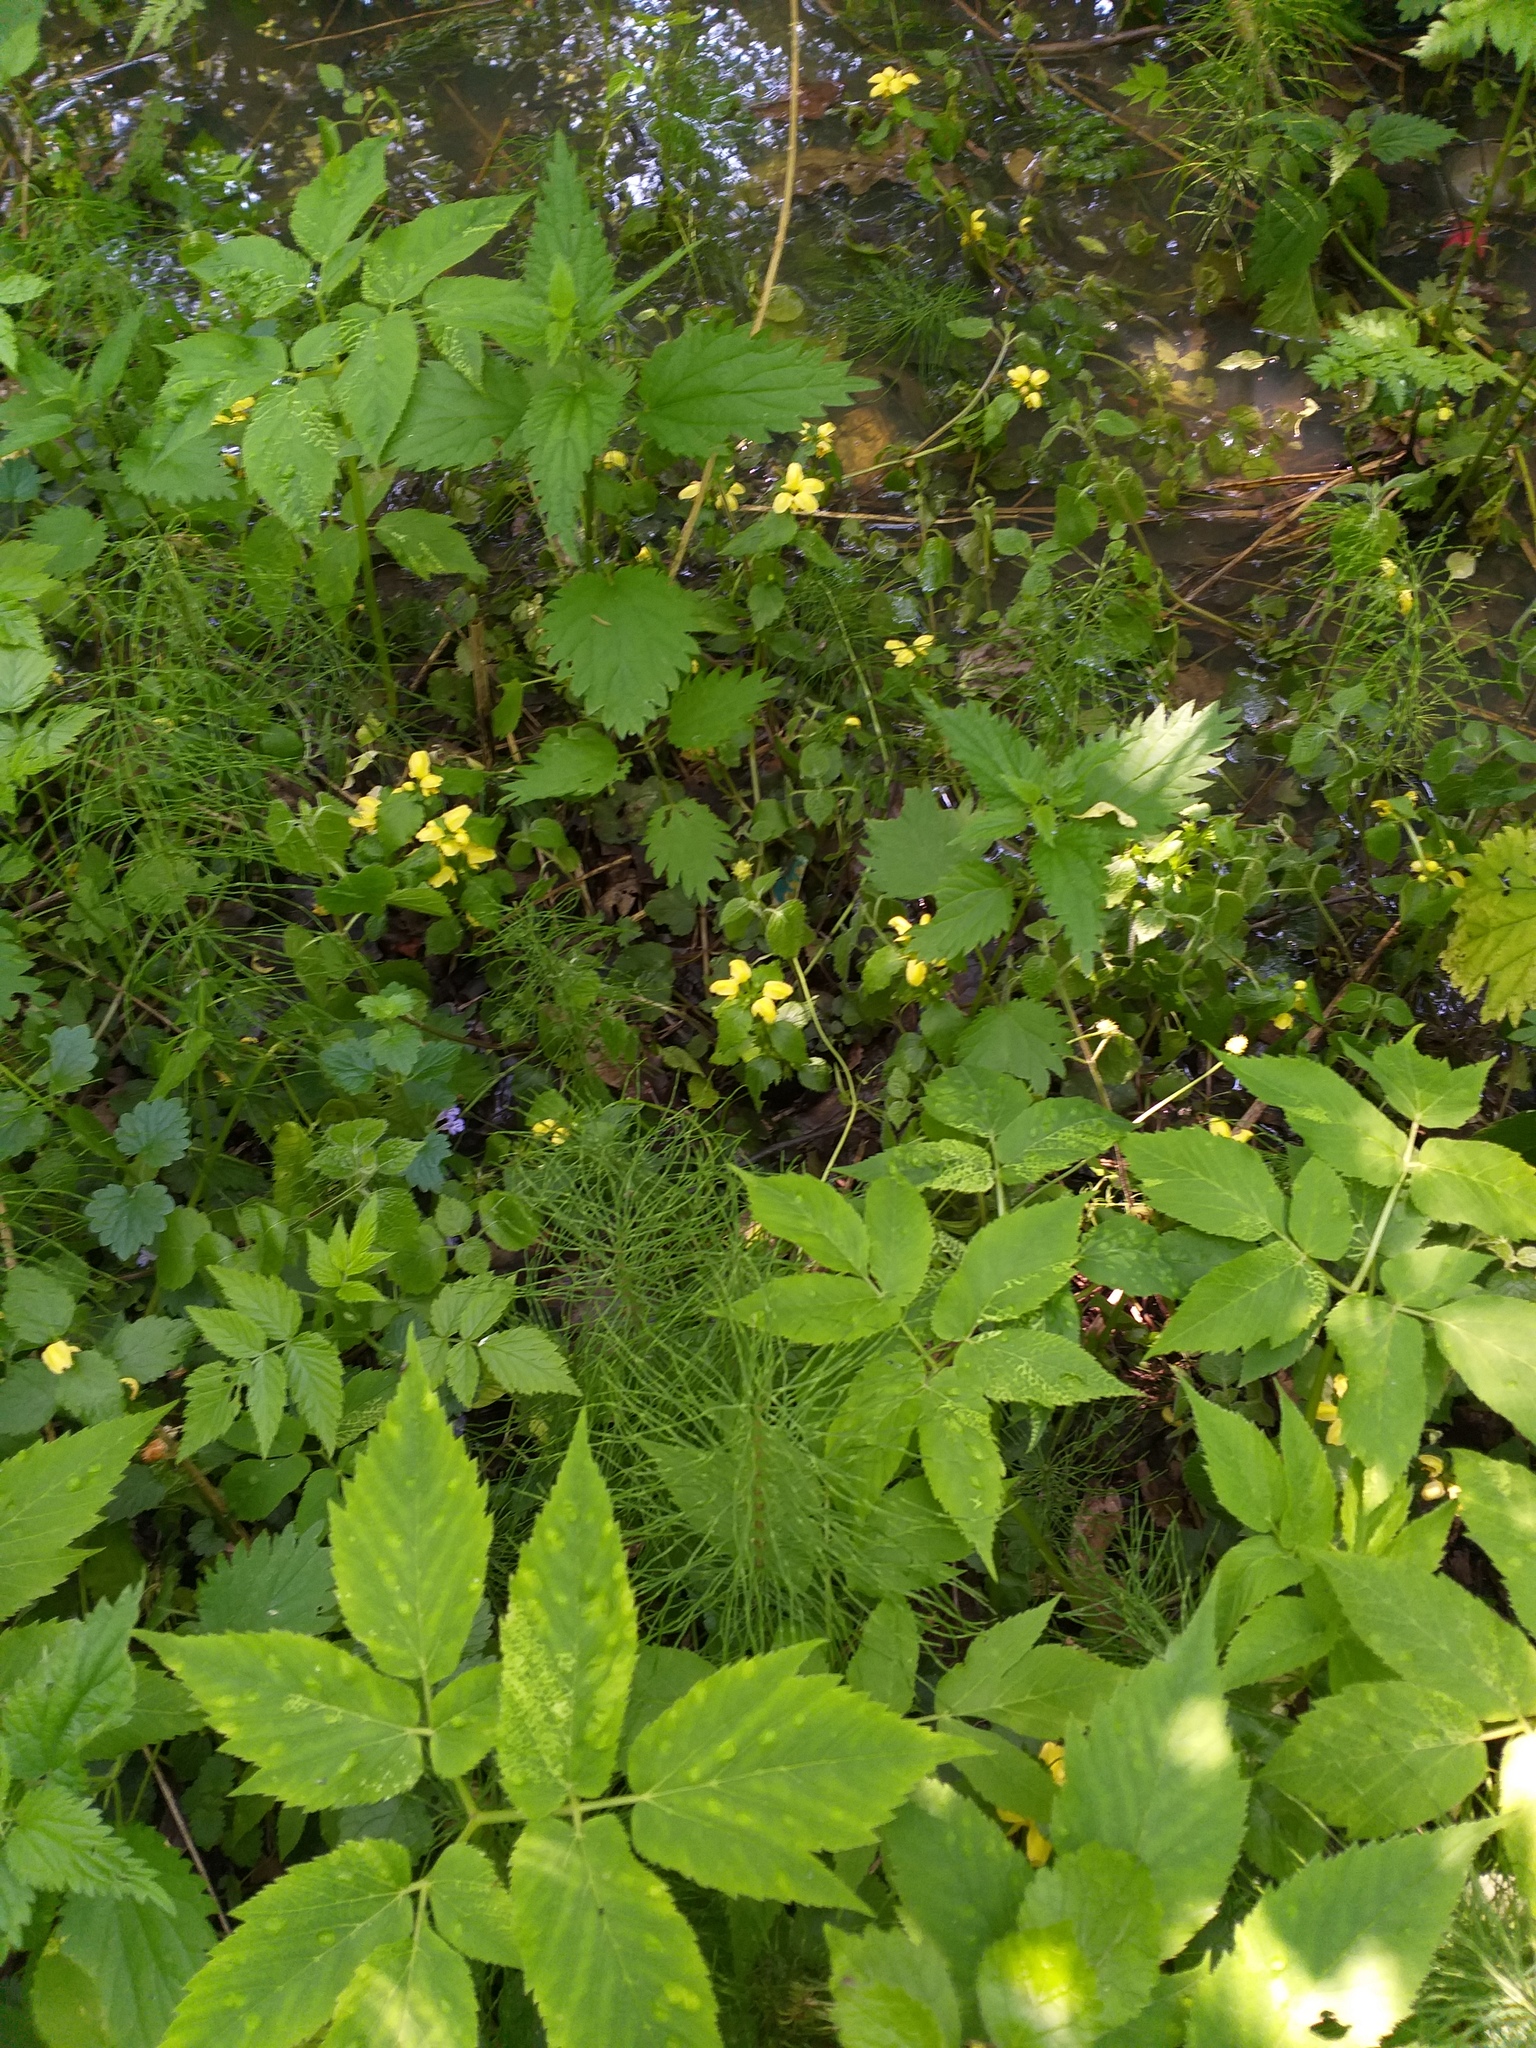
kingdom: Plantae
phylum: Tracheophyta
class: Magnoliopsida
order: Lamiales
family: Lamiaceae
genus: Lamium
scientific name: Lamium galeobdolon
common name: Yellow archangel
